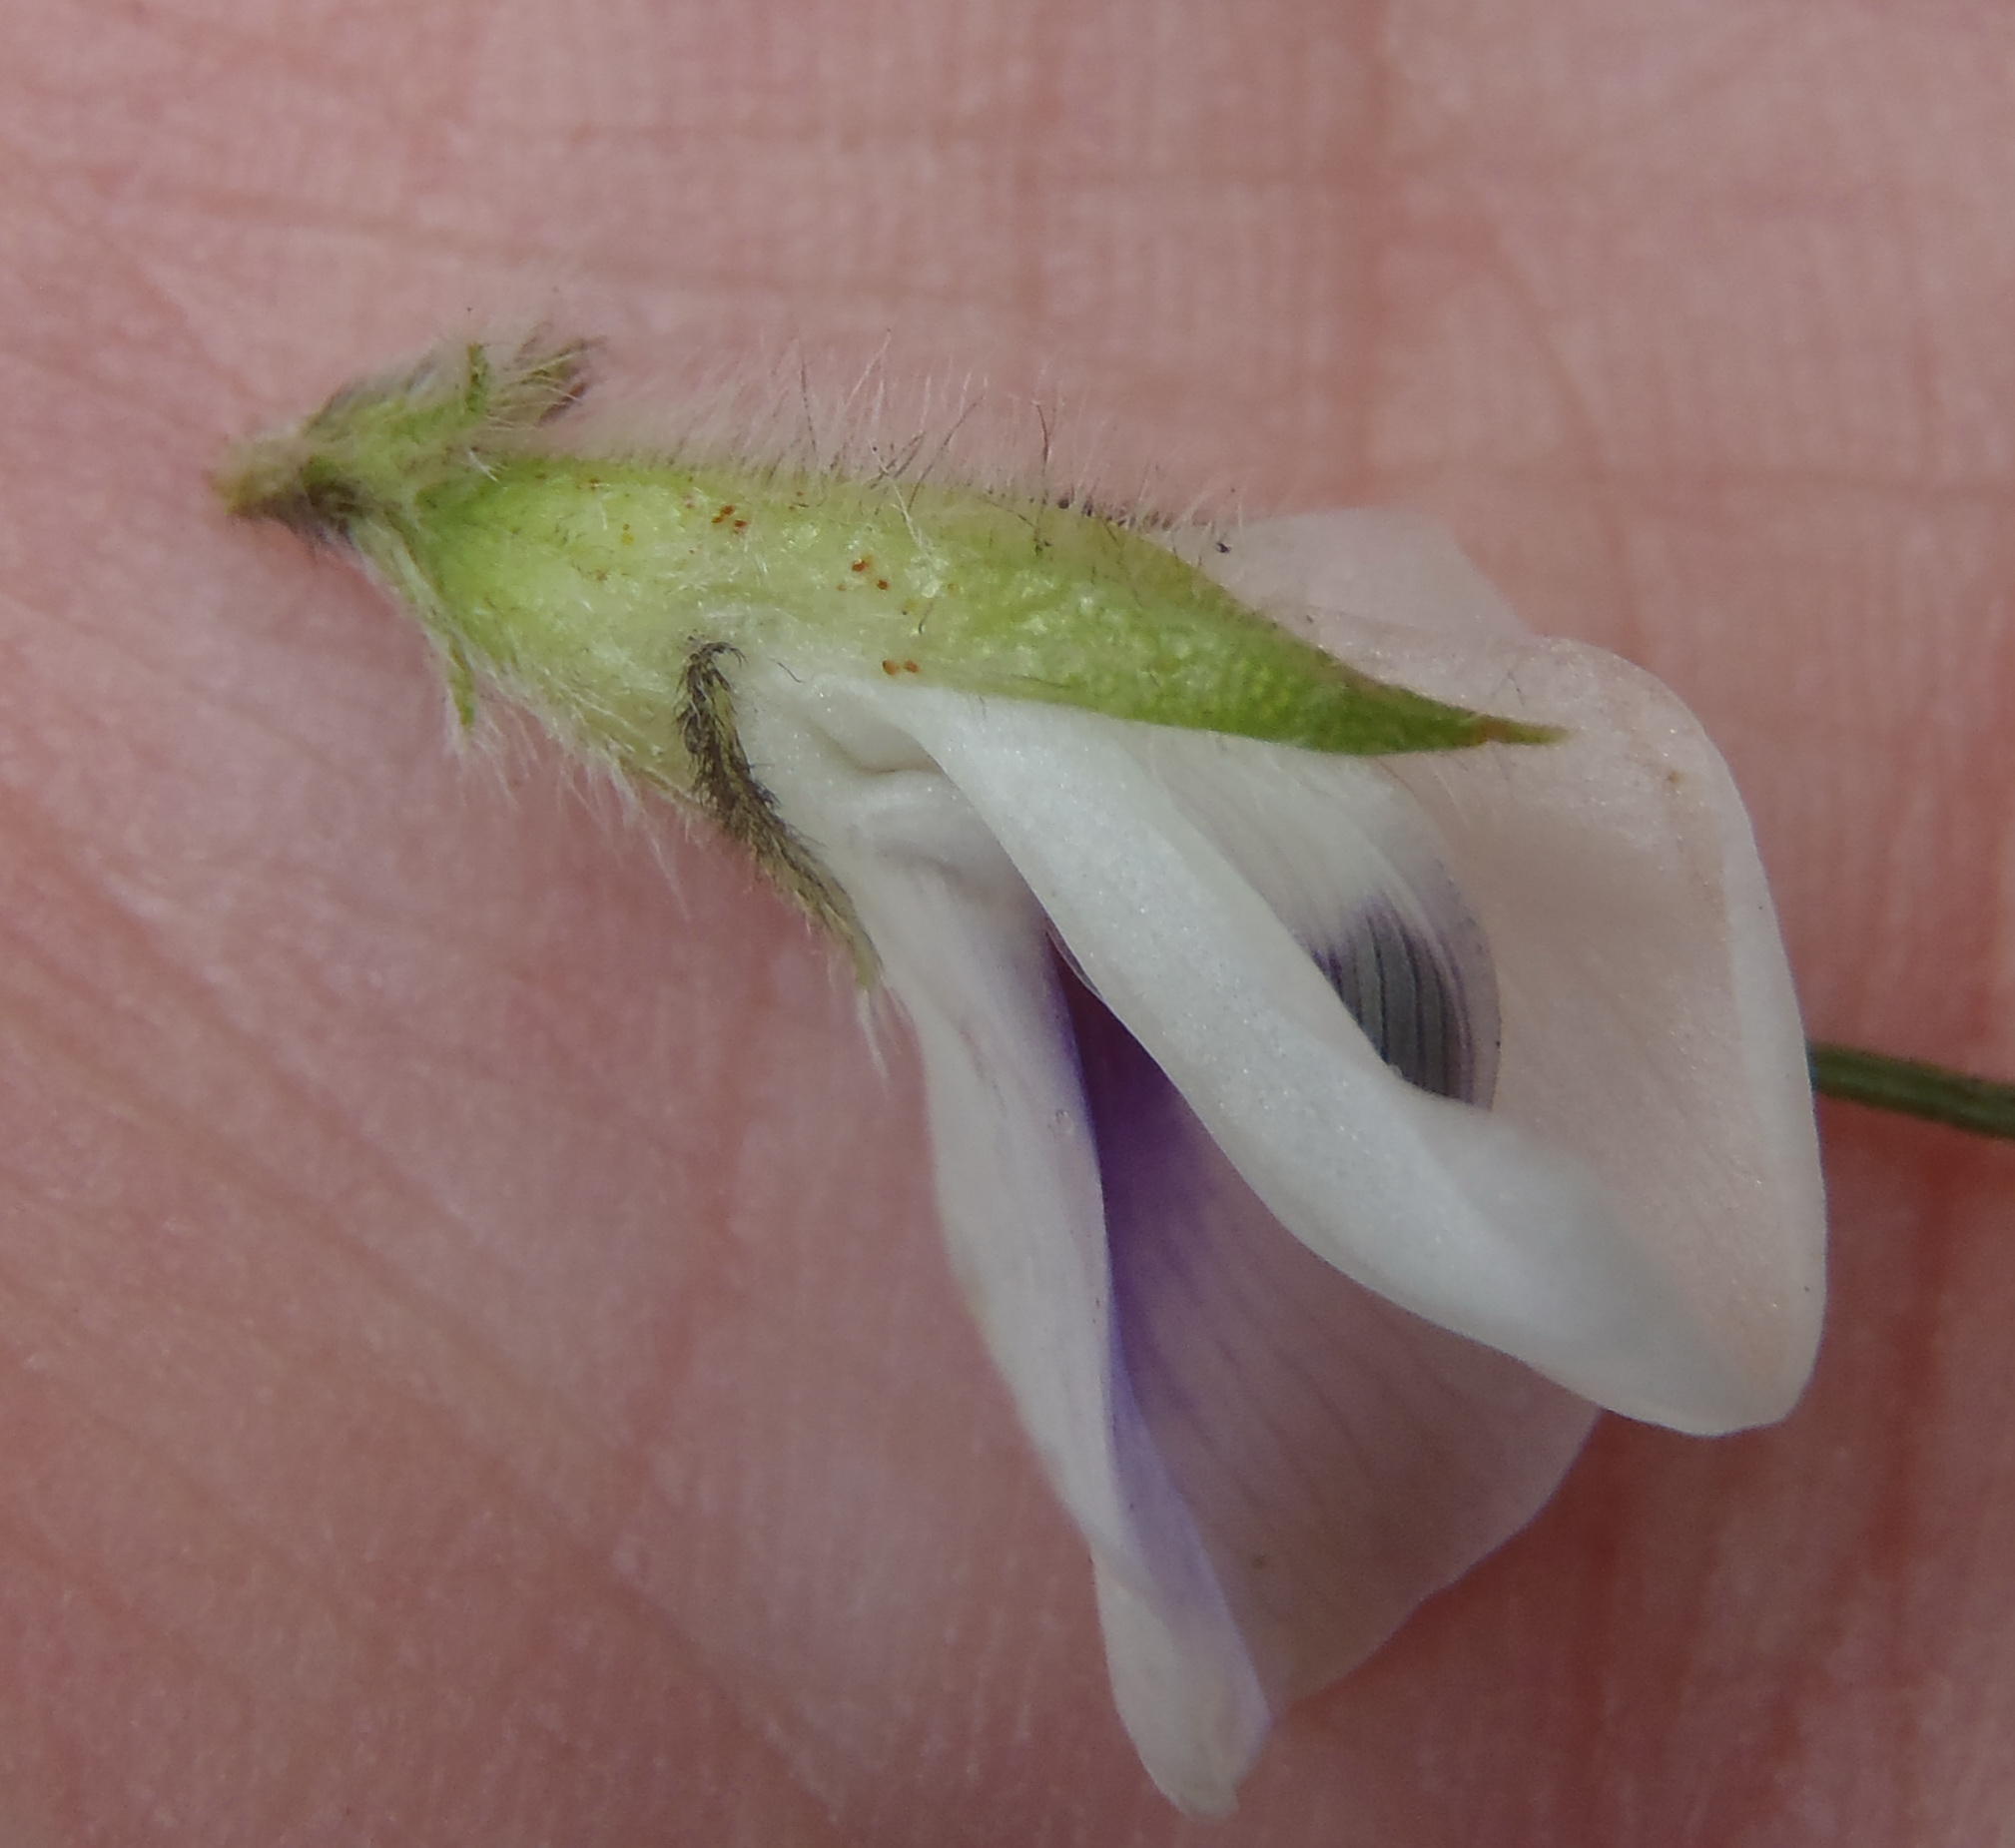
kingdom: Plantae
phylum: Tracheophyta
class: Magnoliopsida
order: Fabales
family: Fabaceae
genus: Psoralea
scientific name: Psoralea floccosa
